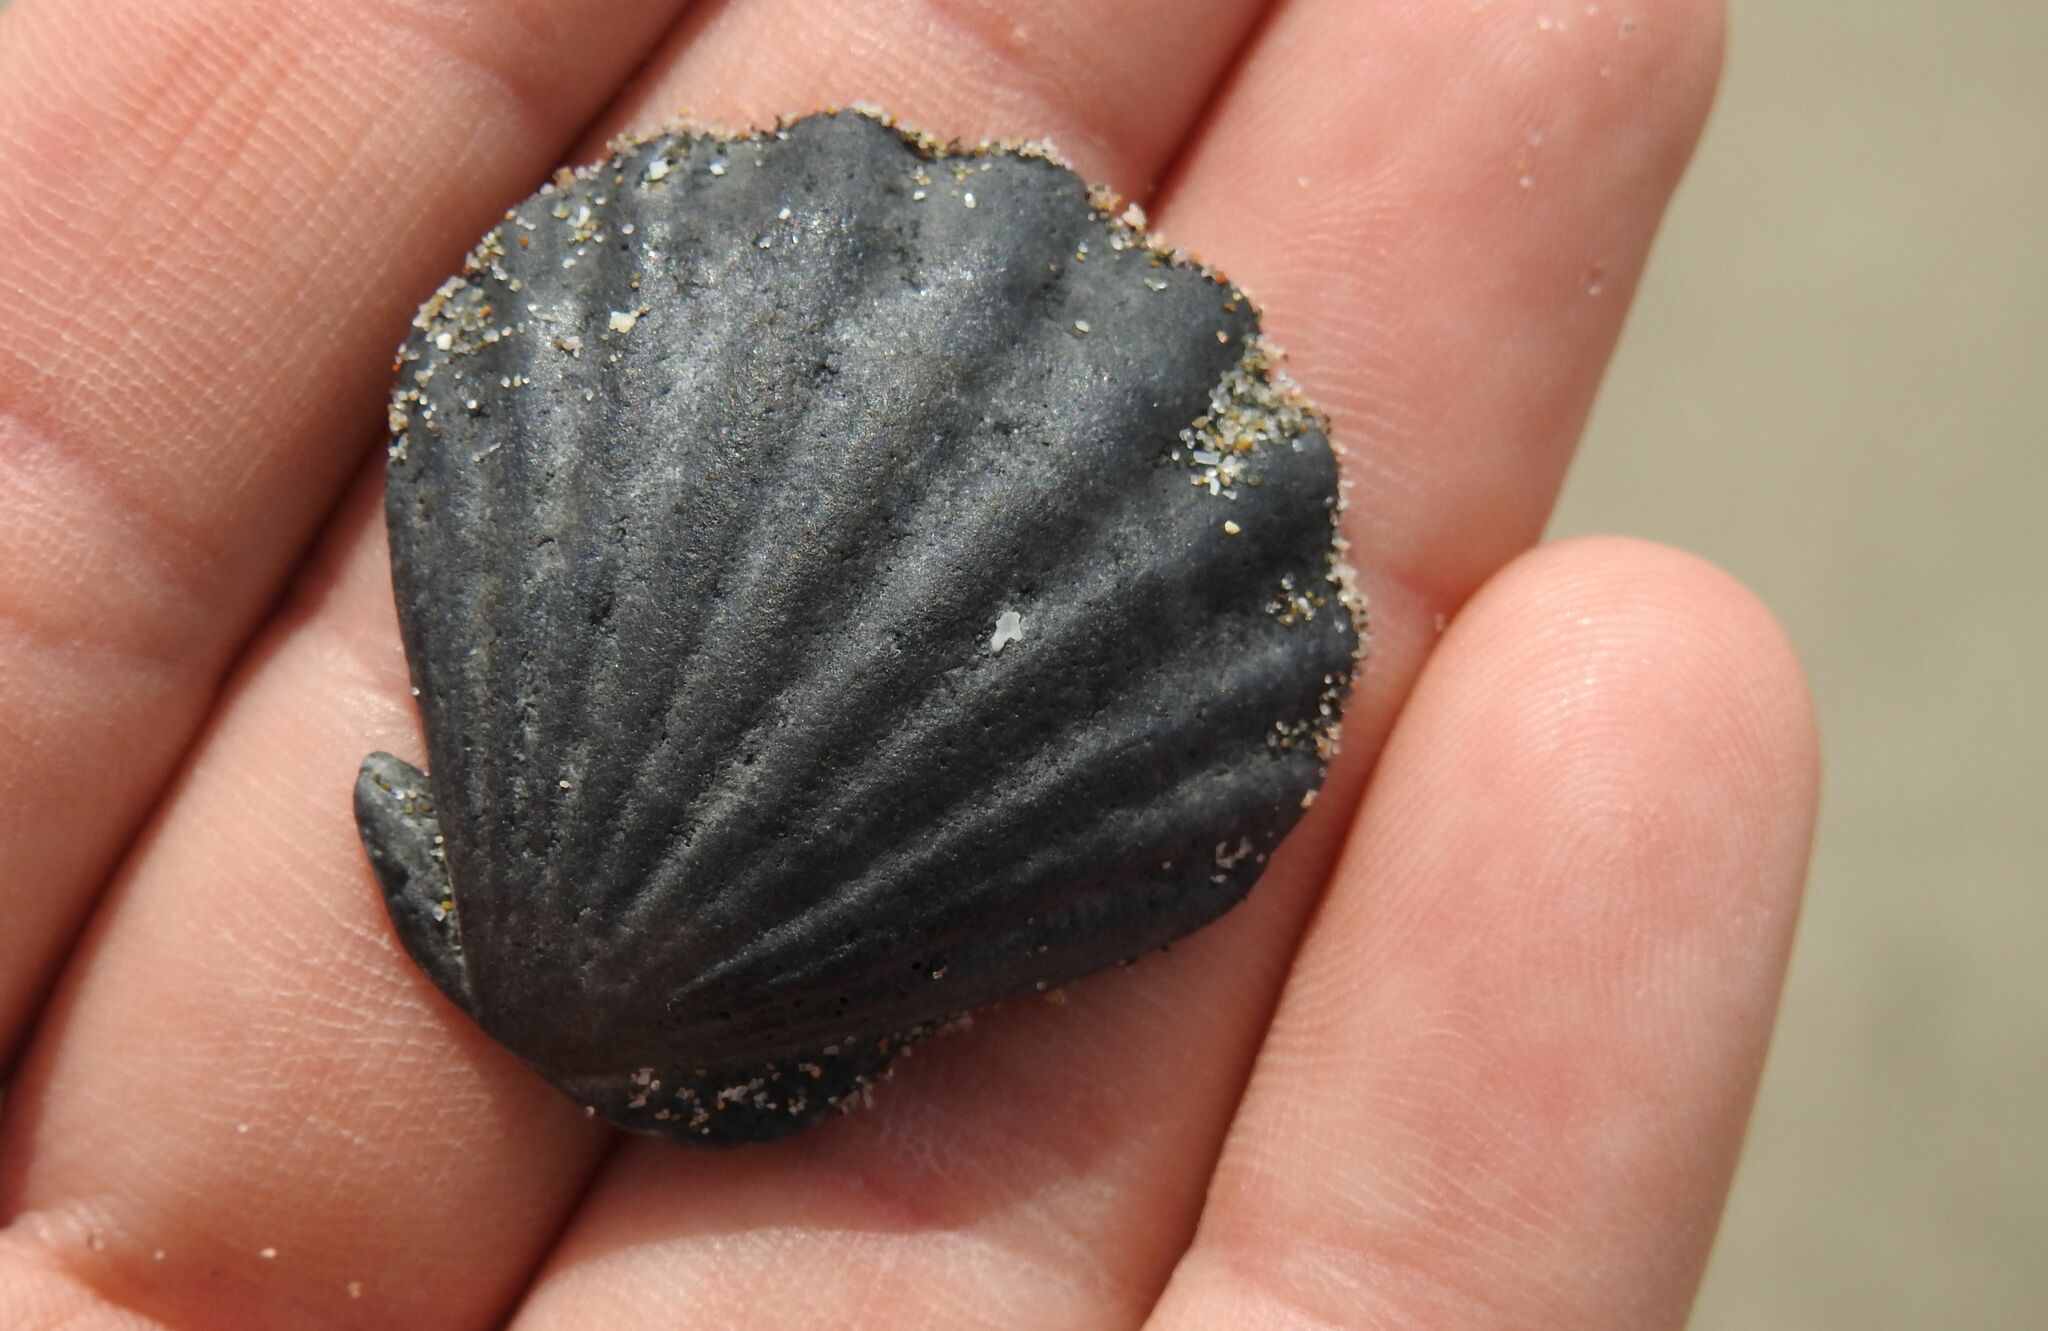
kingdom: Animalia
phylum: Mollusca
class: Bivalvia
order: Pectinida
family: Pectinidae
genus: Flexopecten
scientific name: Flexopecten glaber
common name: Smooth scallop
